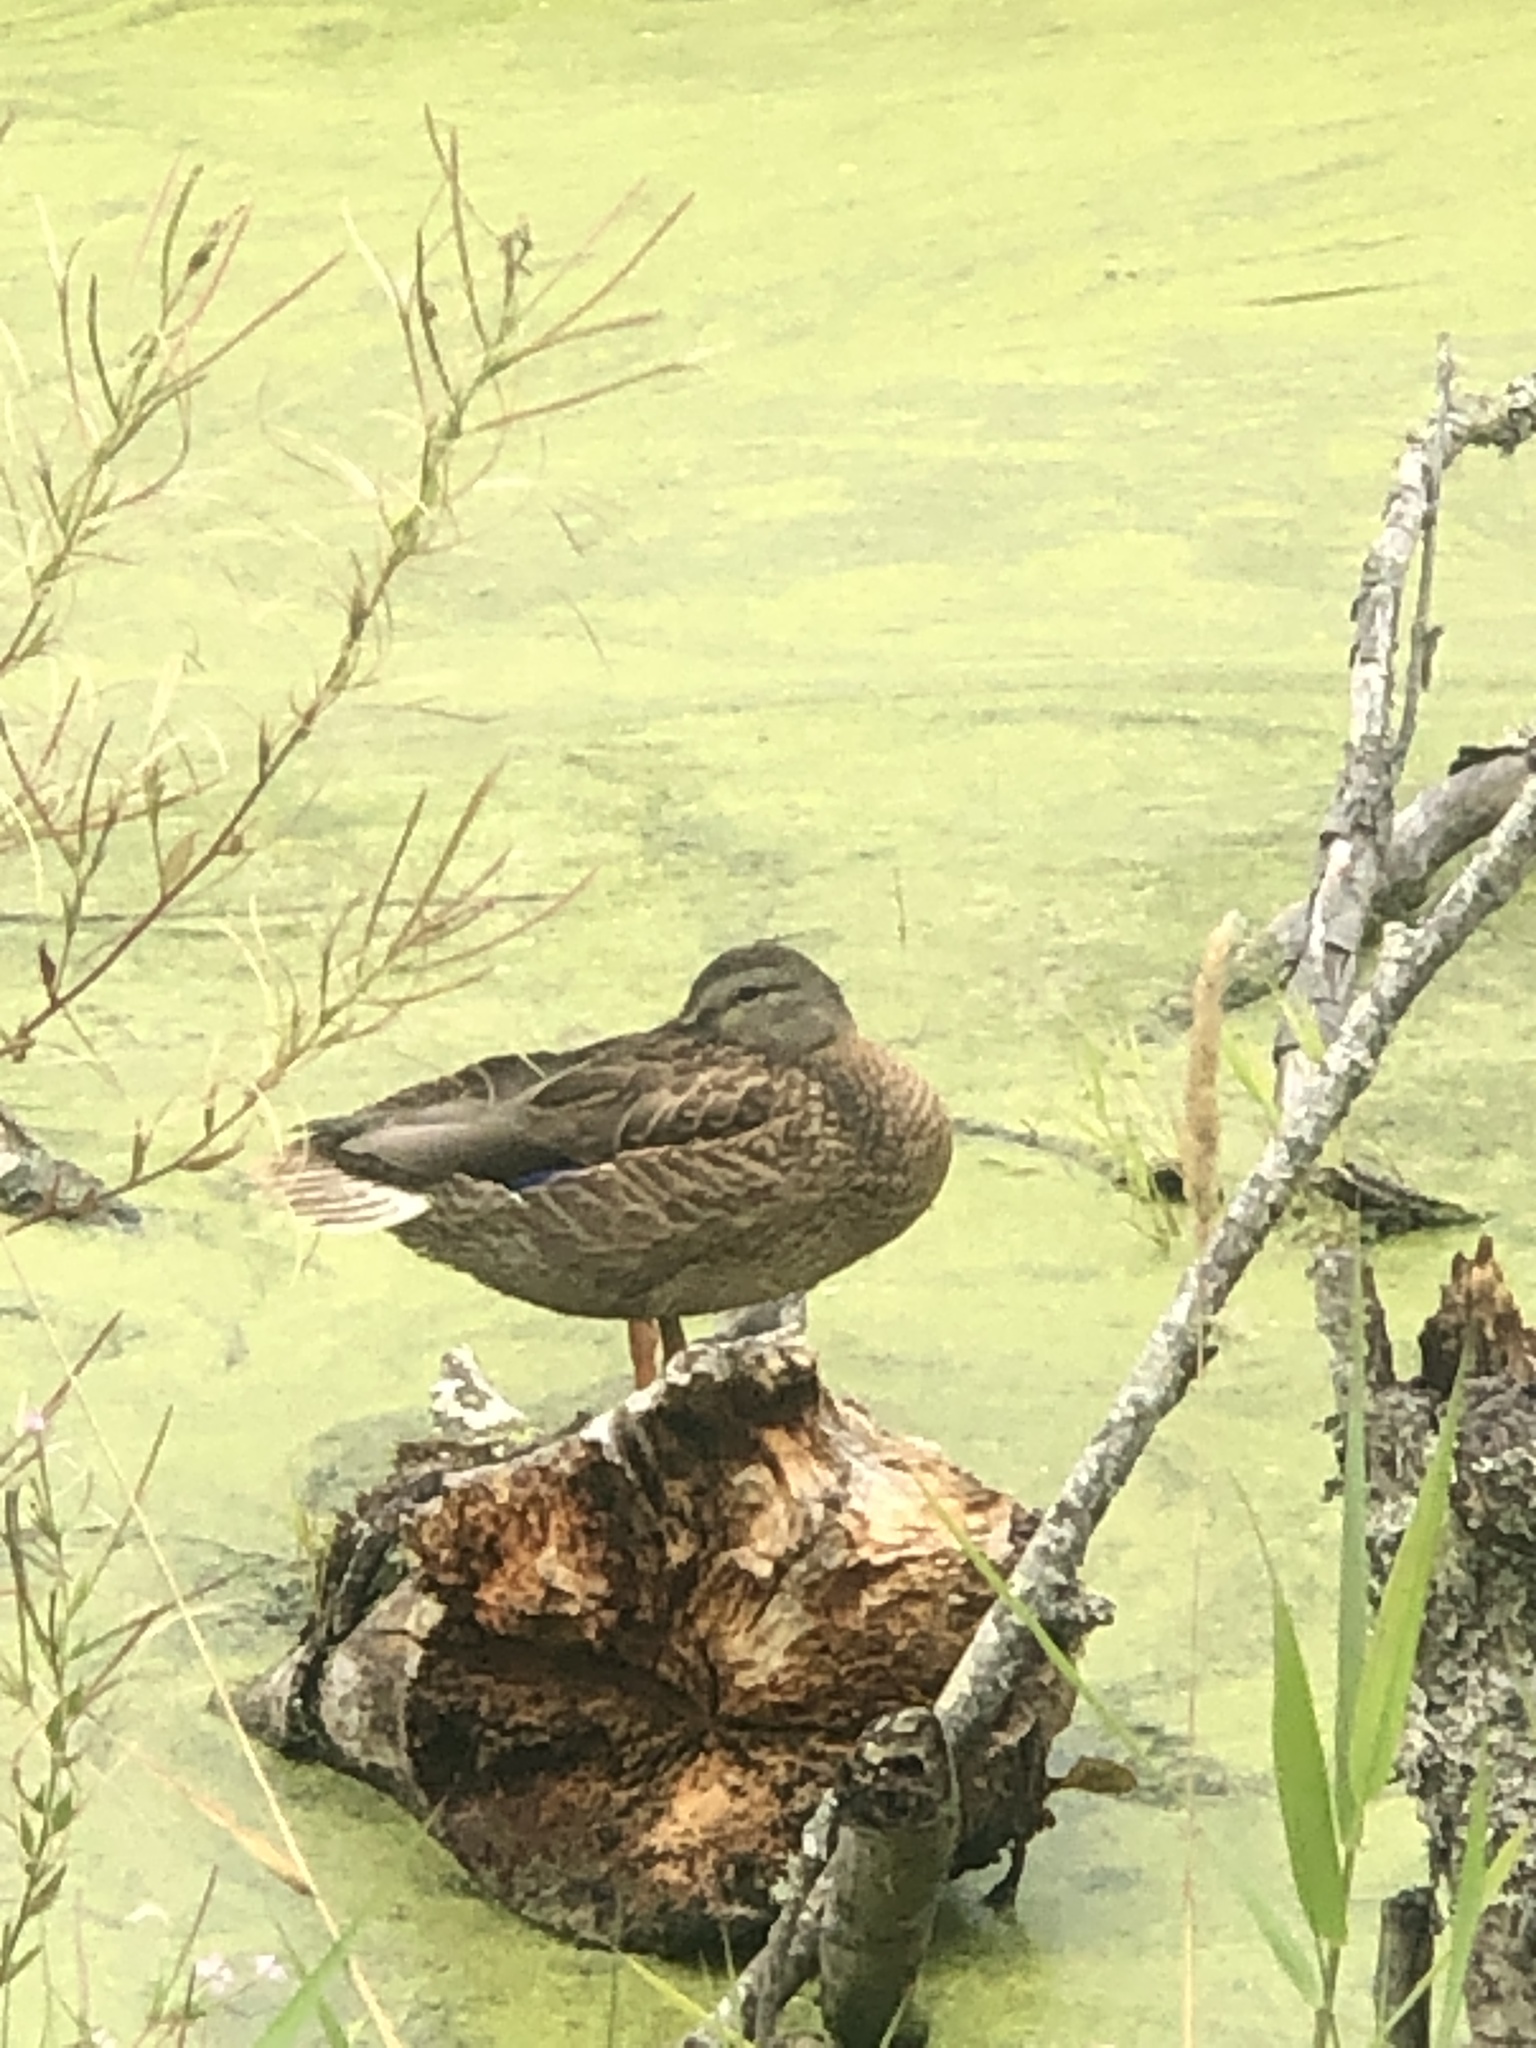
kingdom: Animalia
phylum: Chordata
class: Aves
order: Anseriformes
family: Anatidae
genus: Anas
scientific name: Anas platyrhynchos
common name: Mallard
